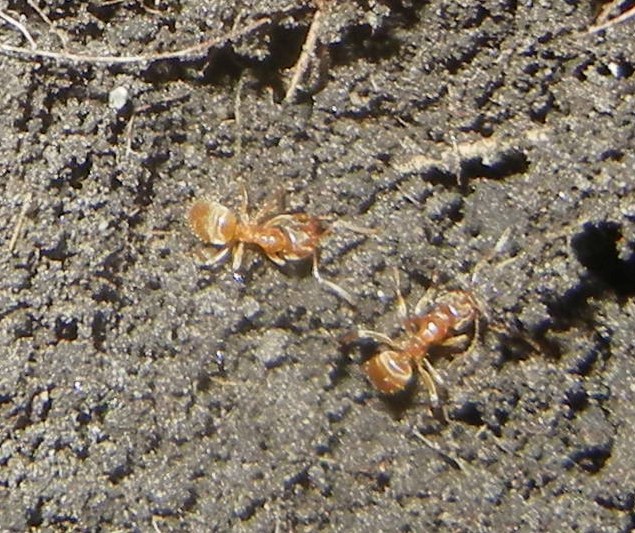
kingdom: Animalia
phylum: Arthropoda
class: Insecta
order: Hymenoptera
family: Formicidae
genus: Lasius
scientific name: Lasius flavus
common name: Blond field ant
